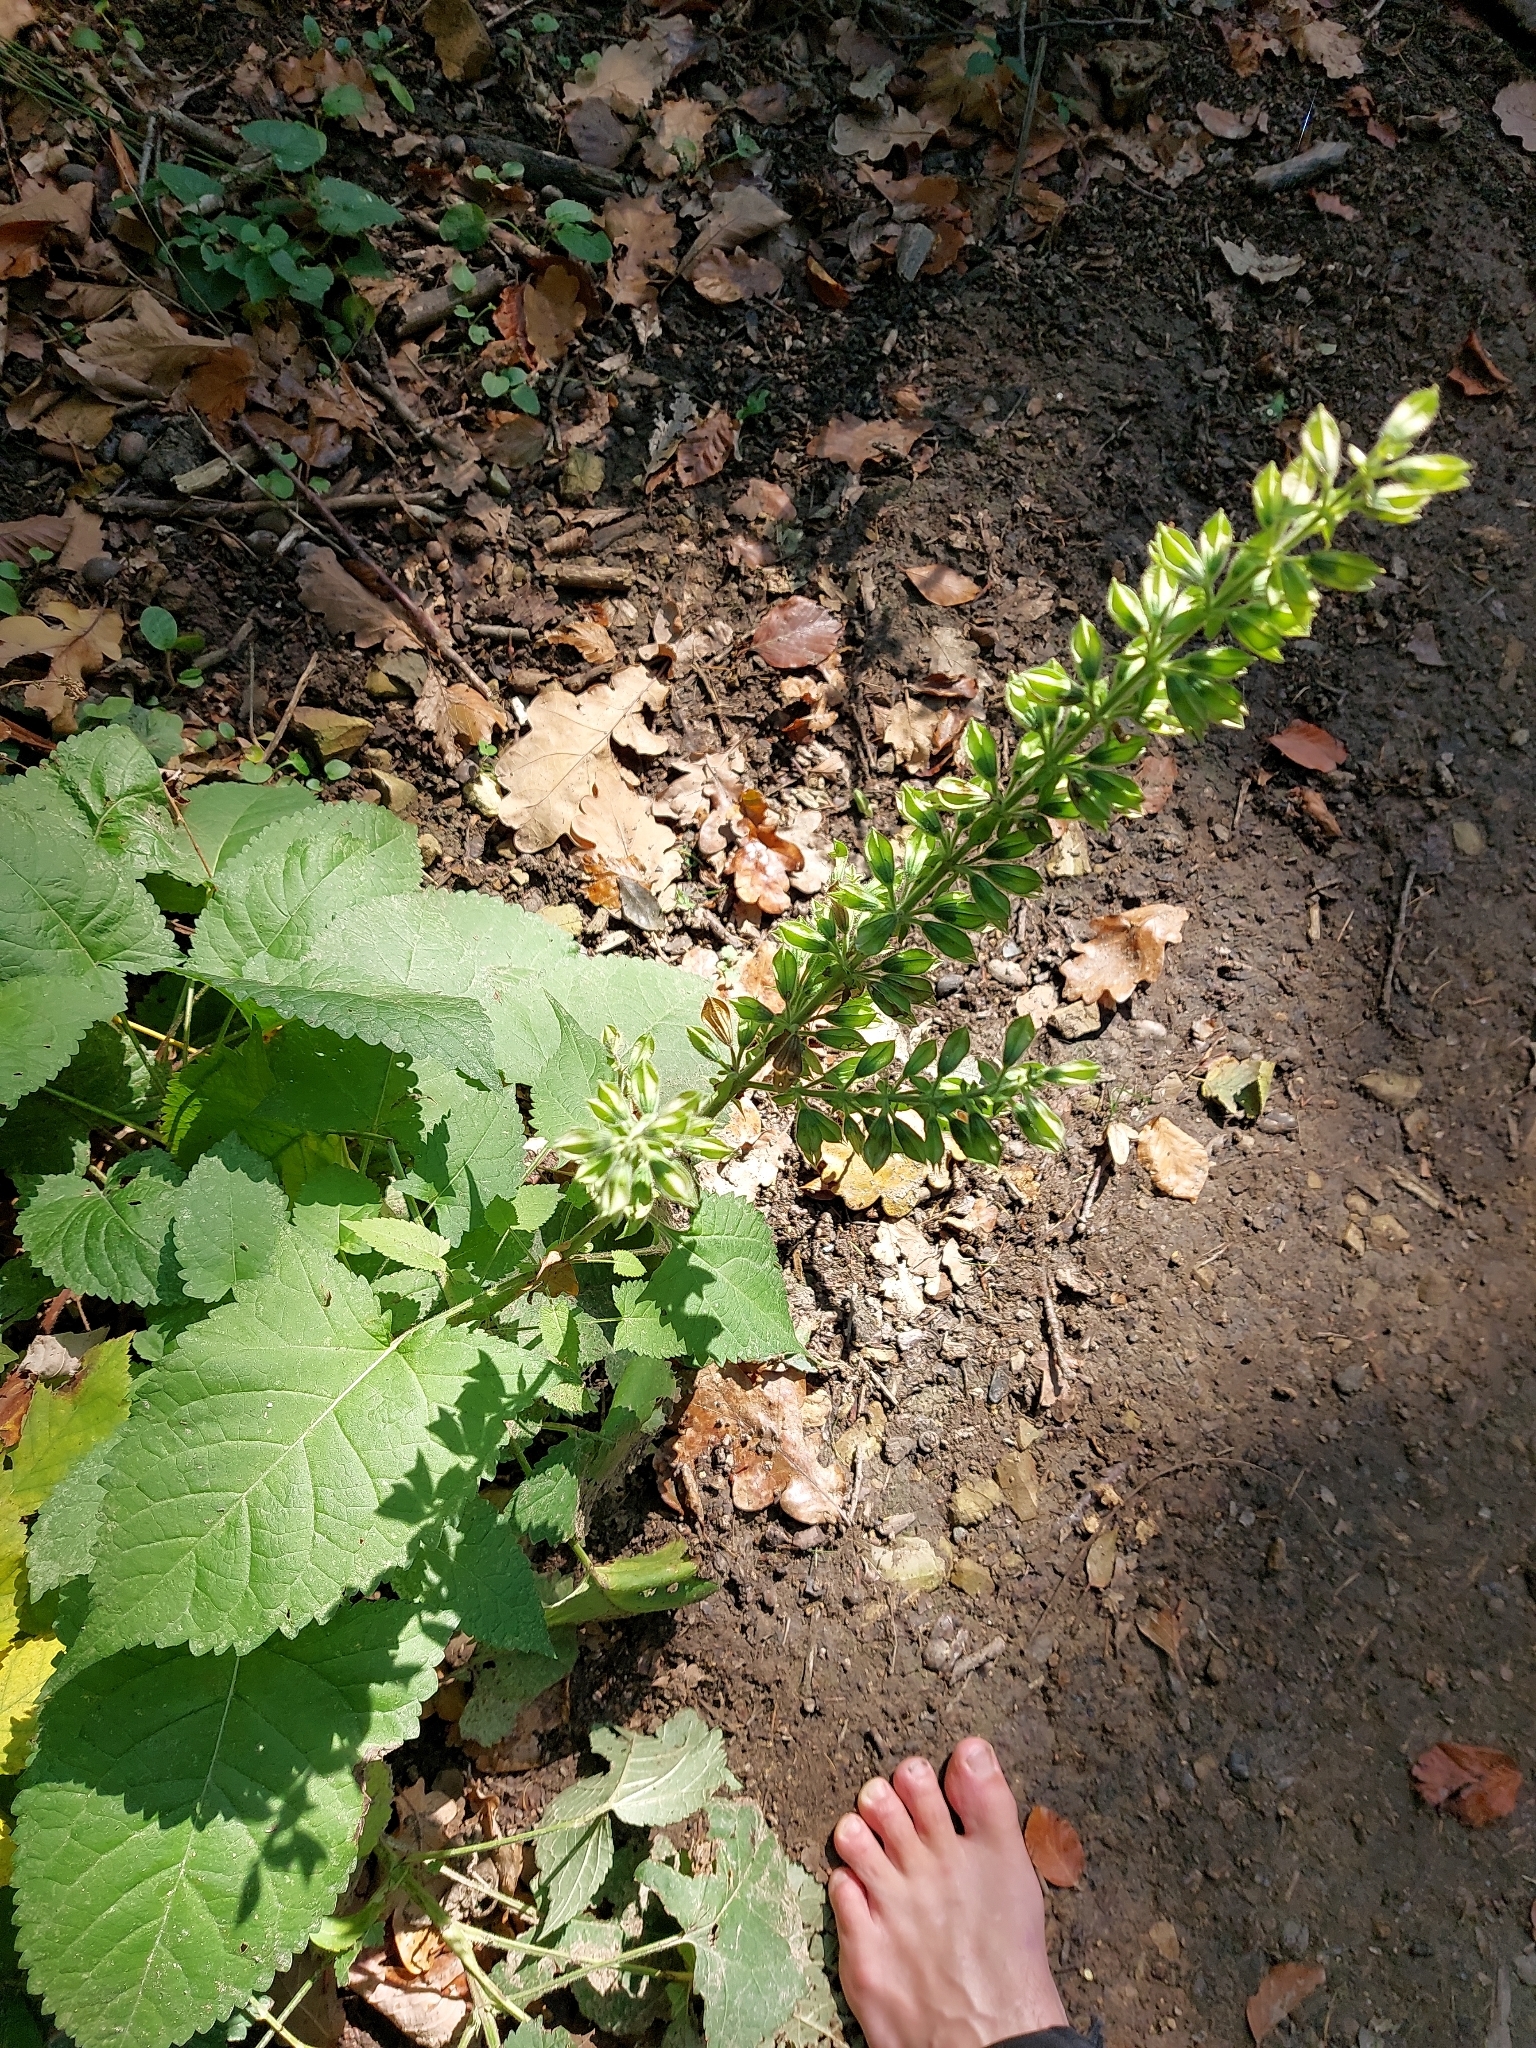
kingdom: Plantae
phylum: Tracheophyta
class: Magnoliopsida
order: Lamiales
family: Lamiaceae
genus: Salvia
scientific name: Salvia glutinosa
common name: Sticky clary
